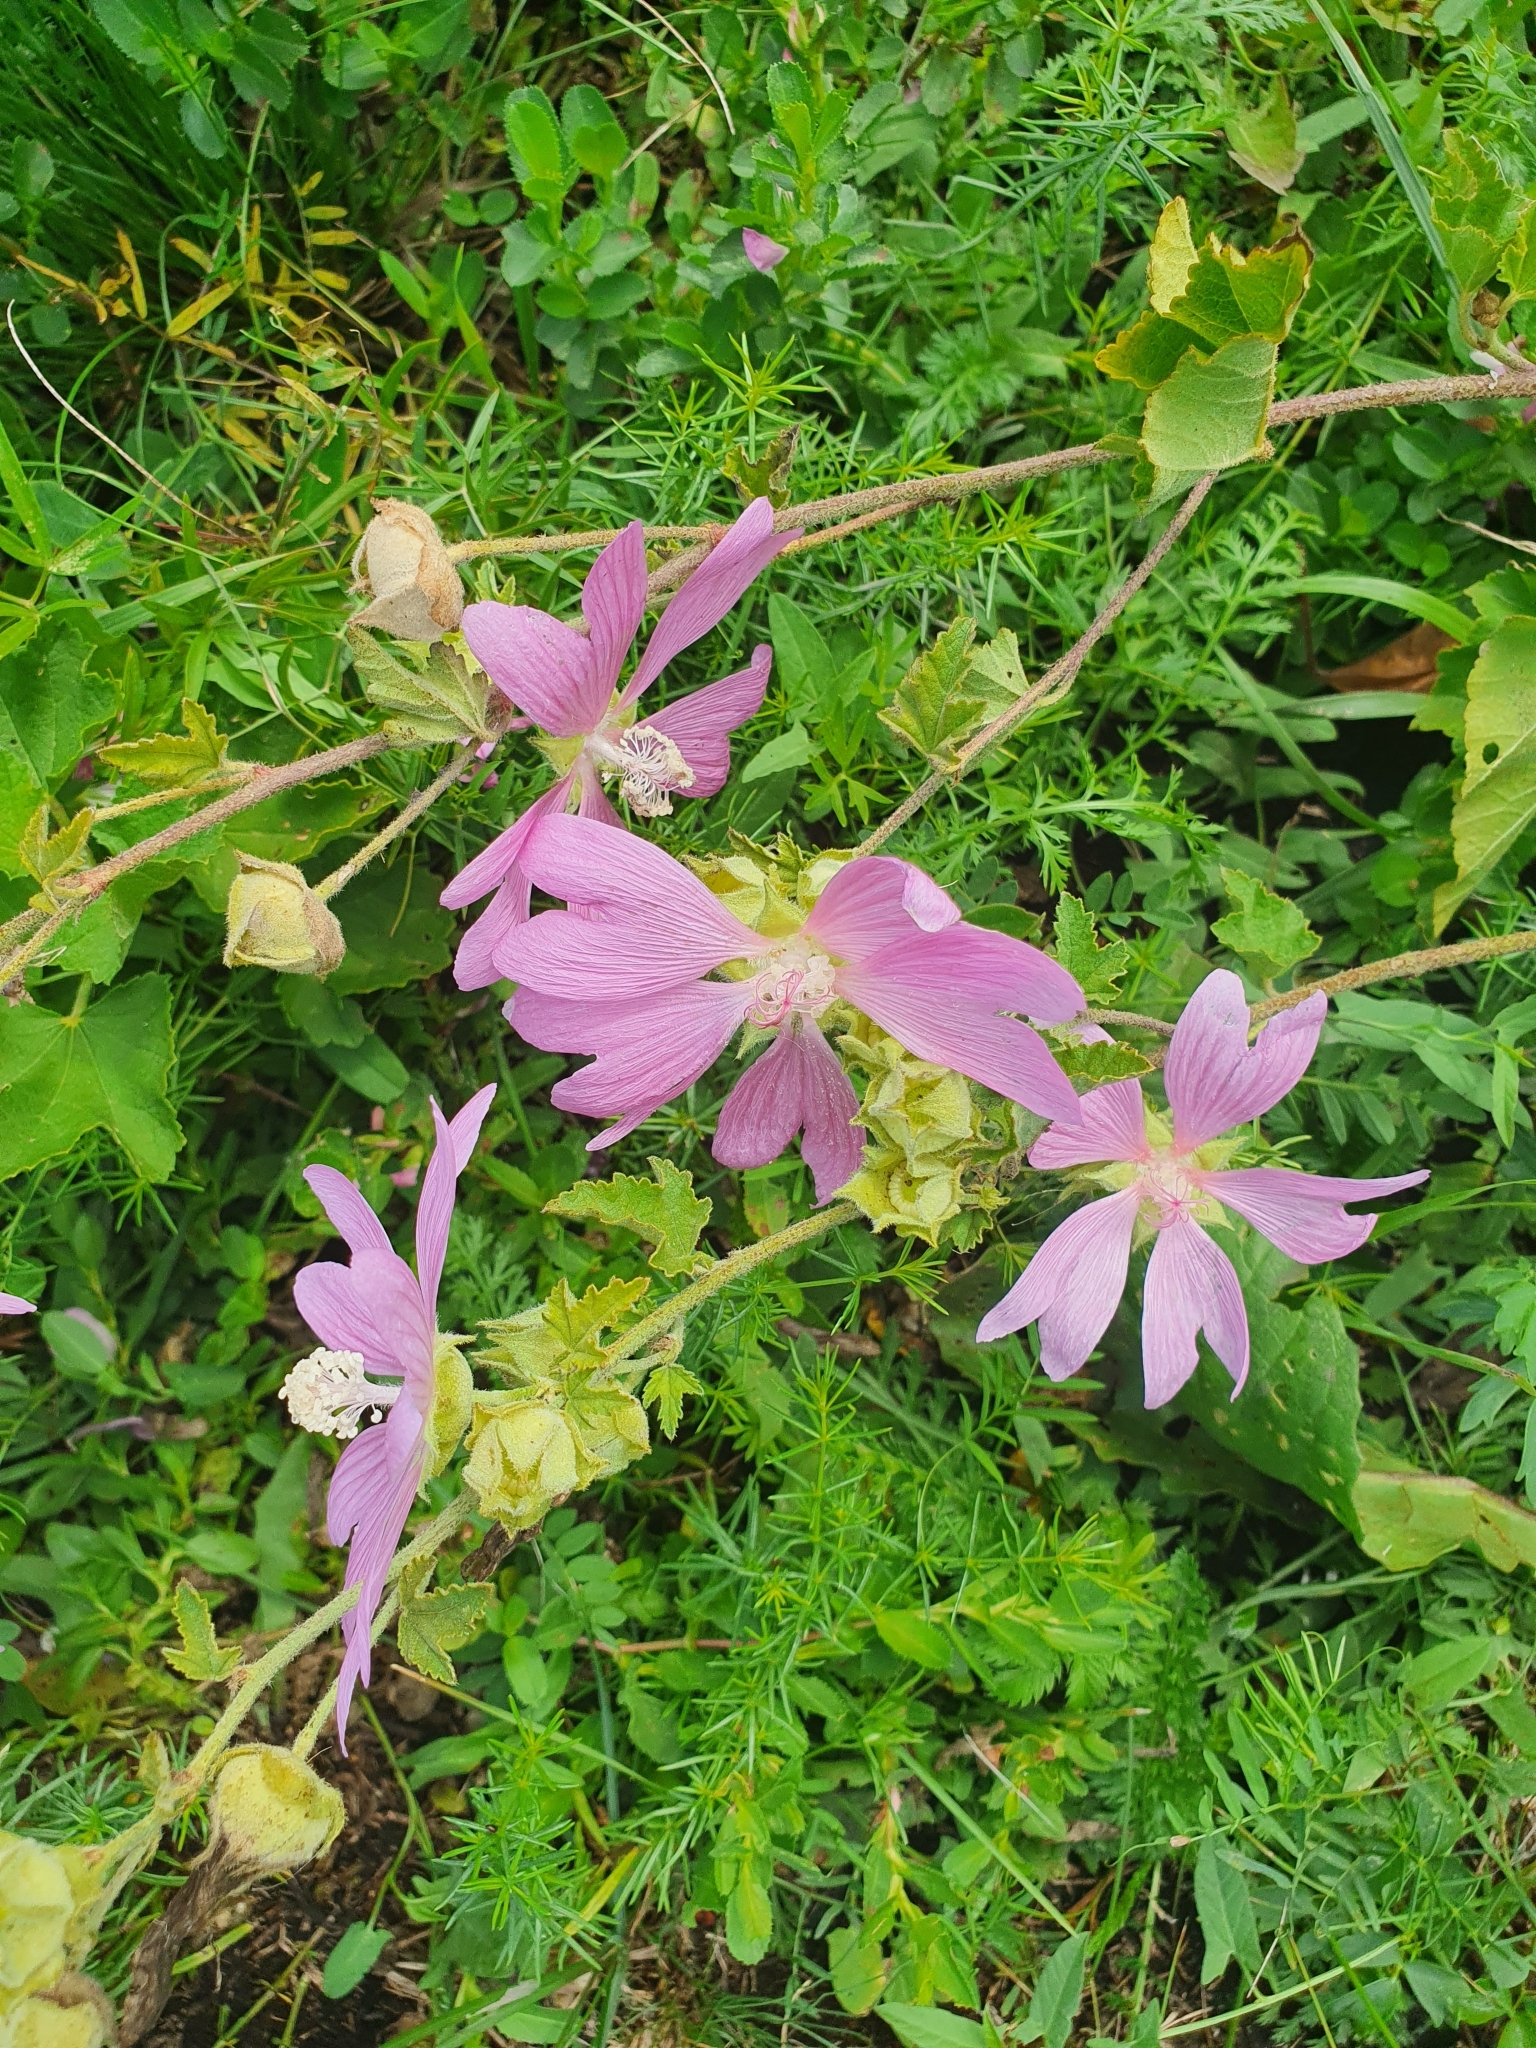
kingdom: Plantae
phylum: Tracheophyta
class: Magnoliopsida
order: Malvales
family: Malvaceae
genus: Malva
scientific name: Malva thuringiaca
